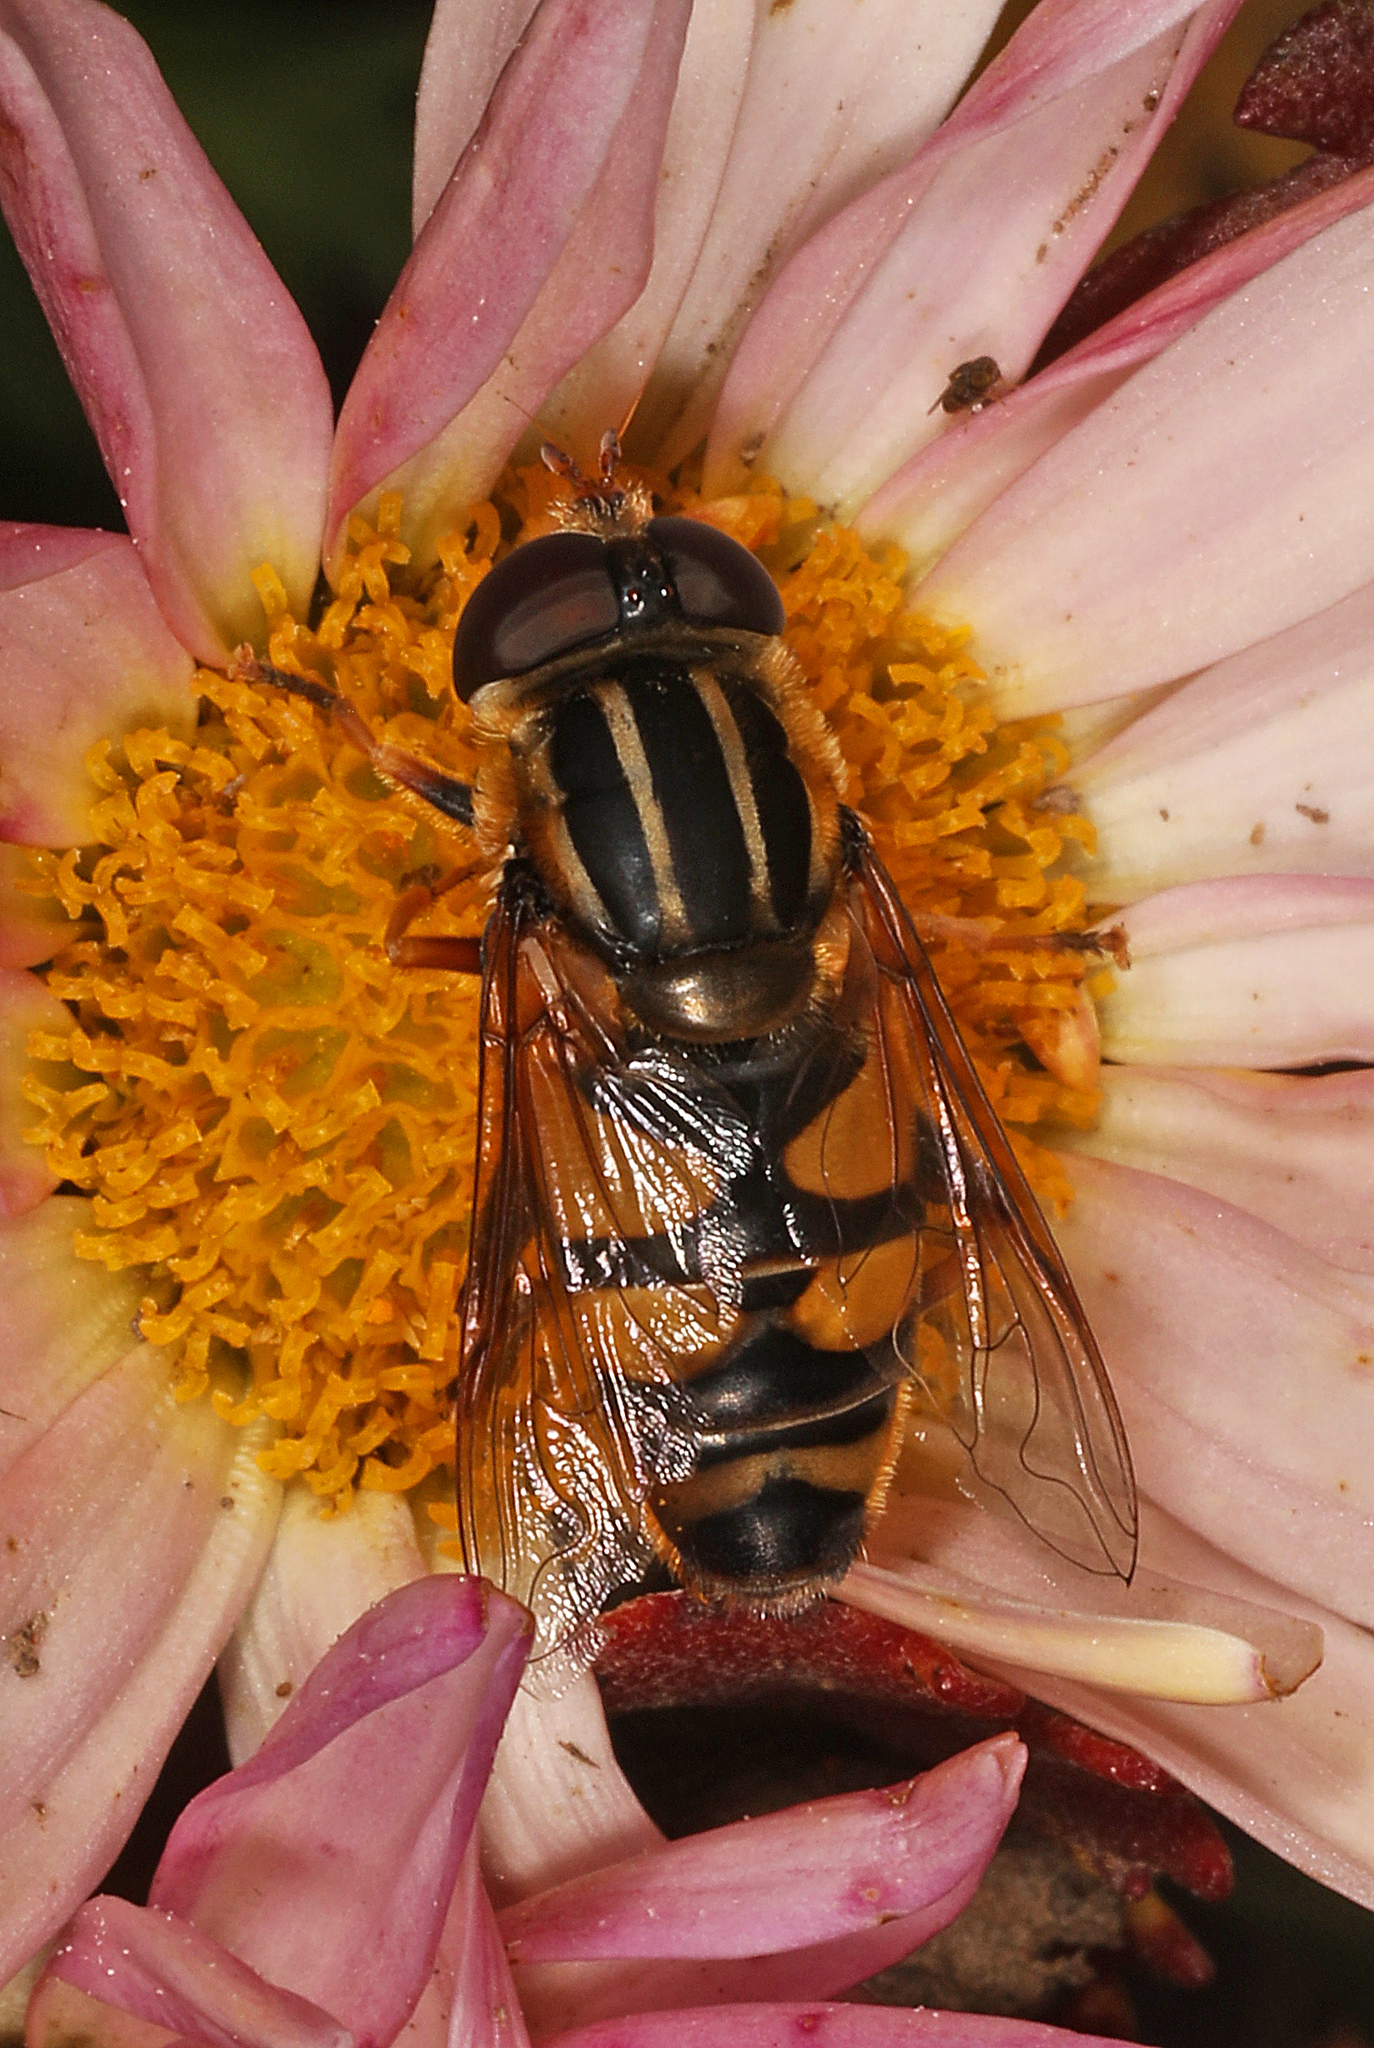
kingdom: Animalia
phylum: Arthropoda
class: Insecta
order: Diptera
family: Syrphidae
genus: Helophilus
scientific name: Helophilus fasciatus
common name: Narrow-headed marsh fly
